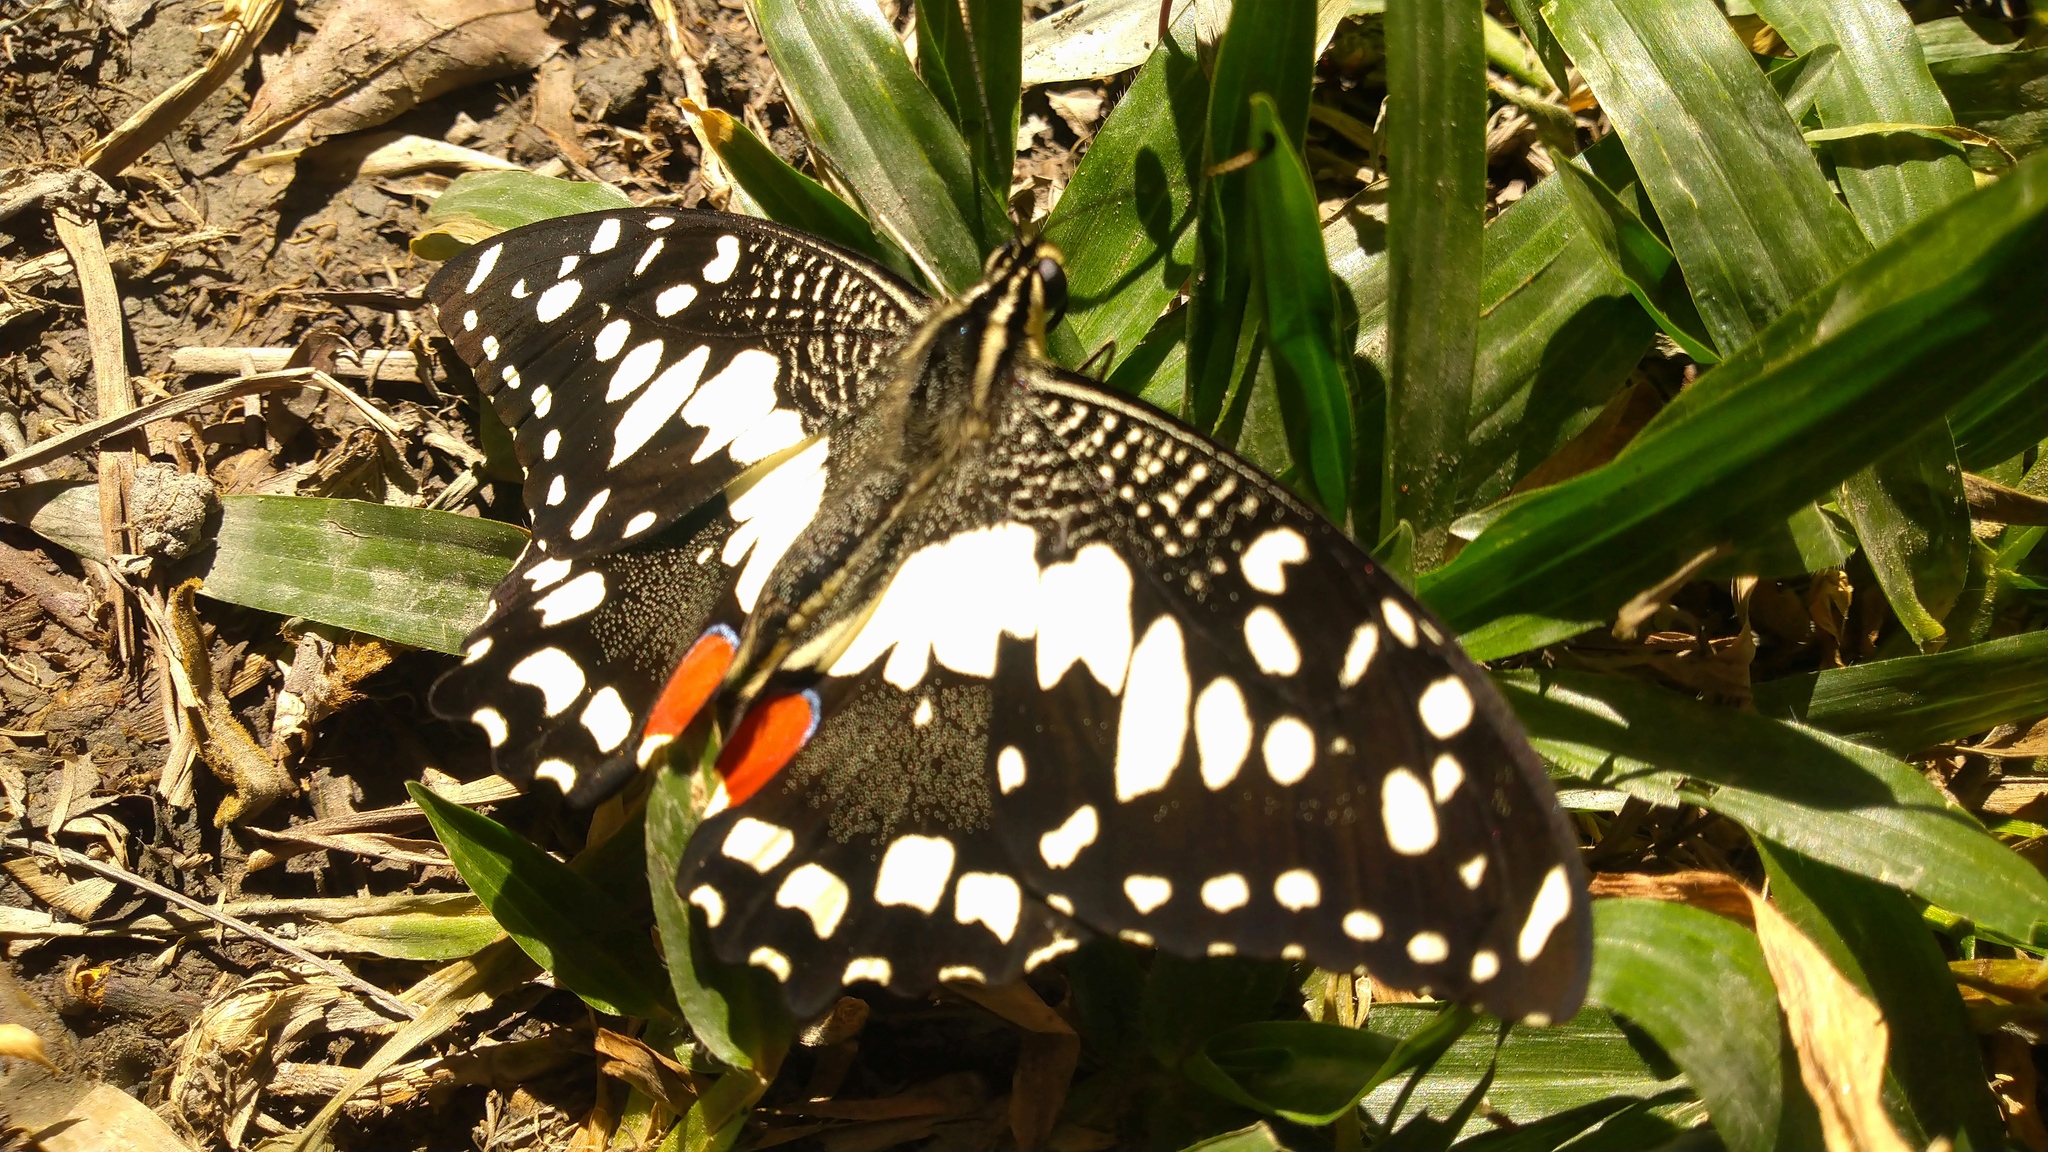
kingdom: Animalia
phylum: Arthropoda
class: Insecta
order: Lepidoptera
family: Papilionidae
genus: Papilio
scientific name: Papilio demoleus
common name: Lime butterfly
